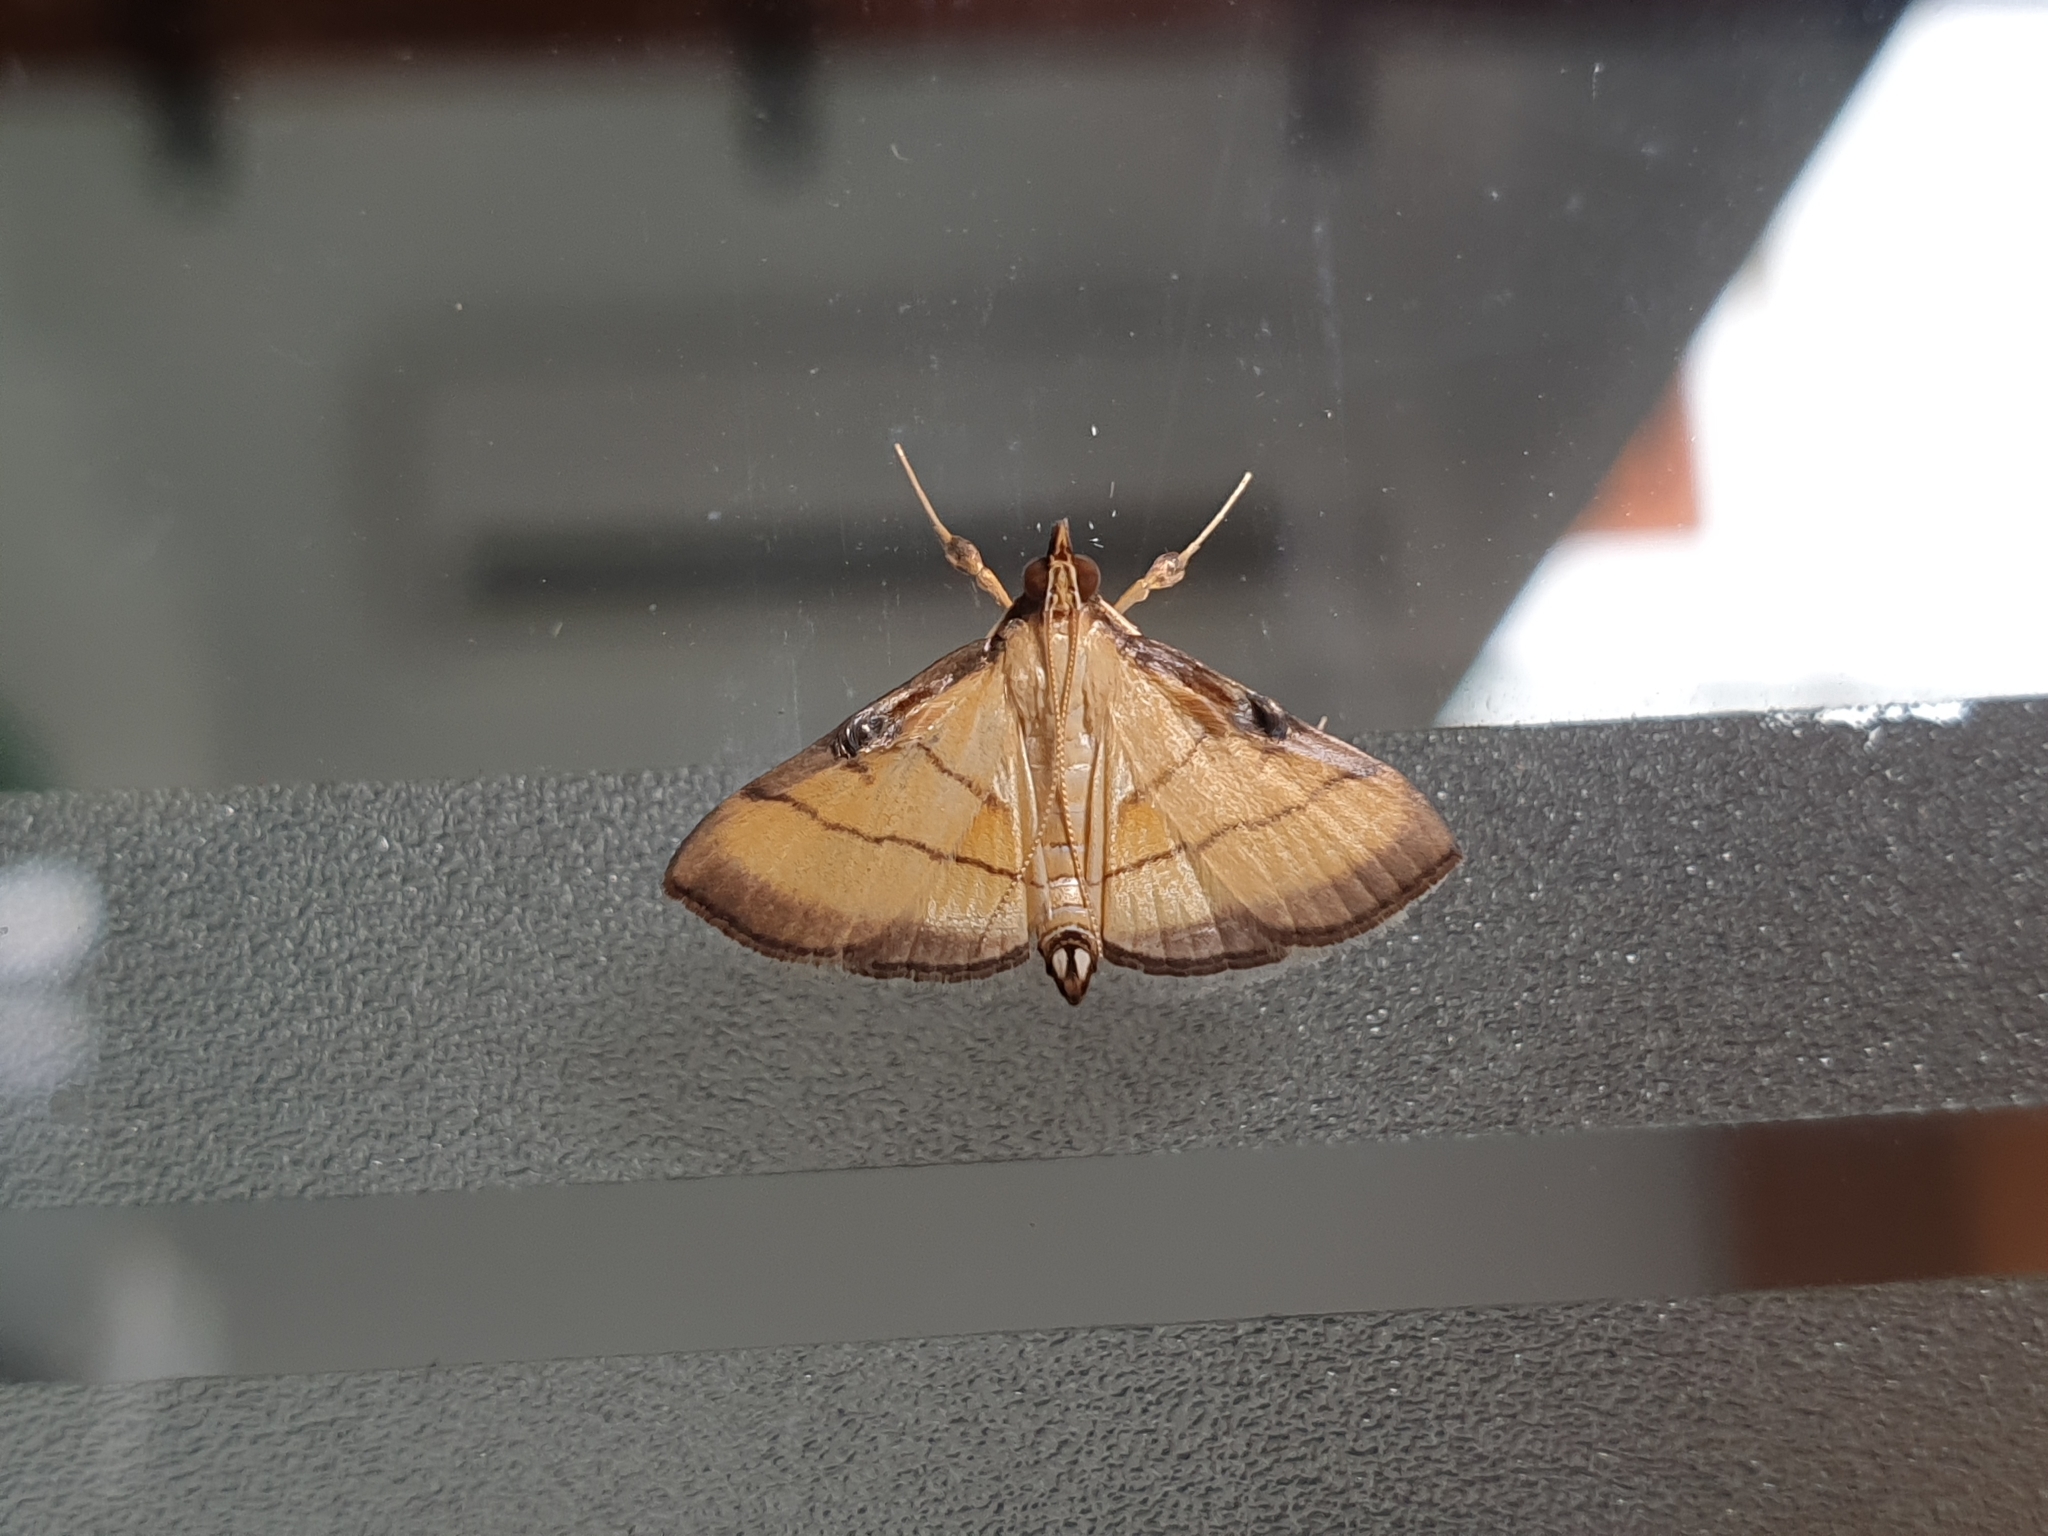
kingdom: Animalia
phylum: Arthropoda
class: Insecta
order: Lepidoptera
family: Crambidae
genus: Cnaphalocrocis
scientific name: Cnaphalocrocis medinalis
